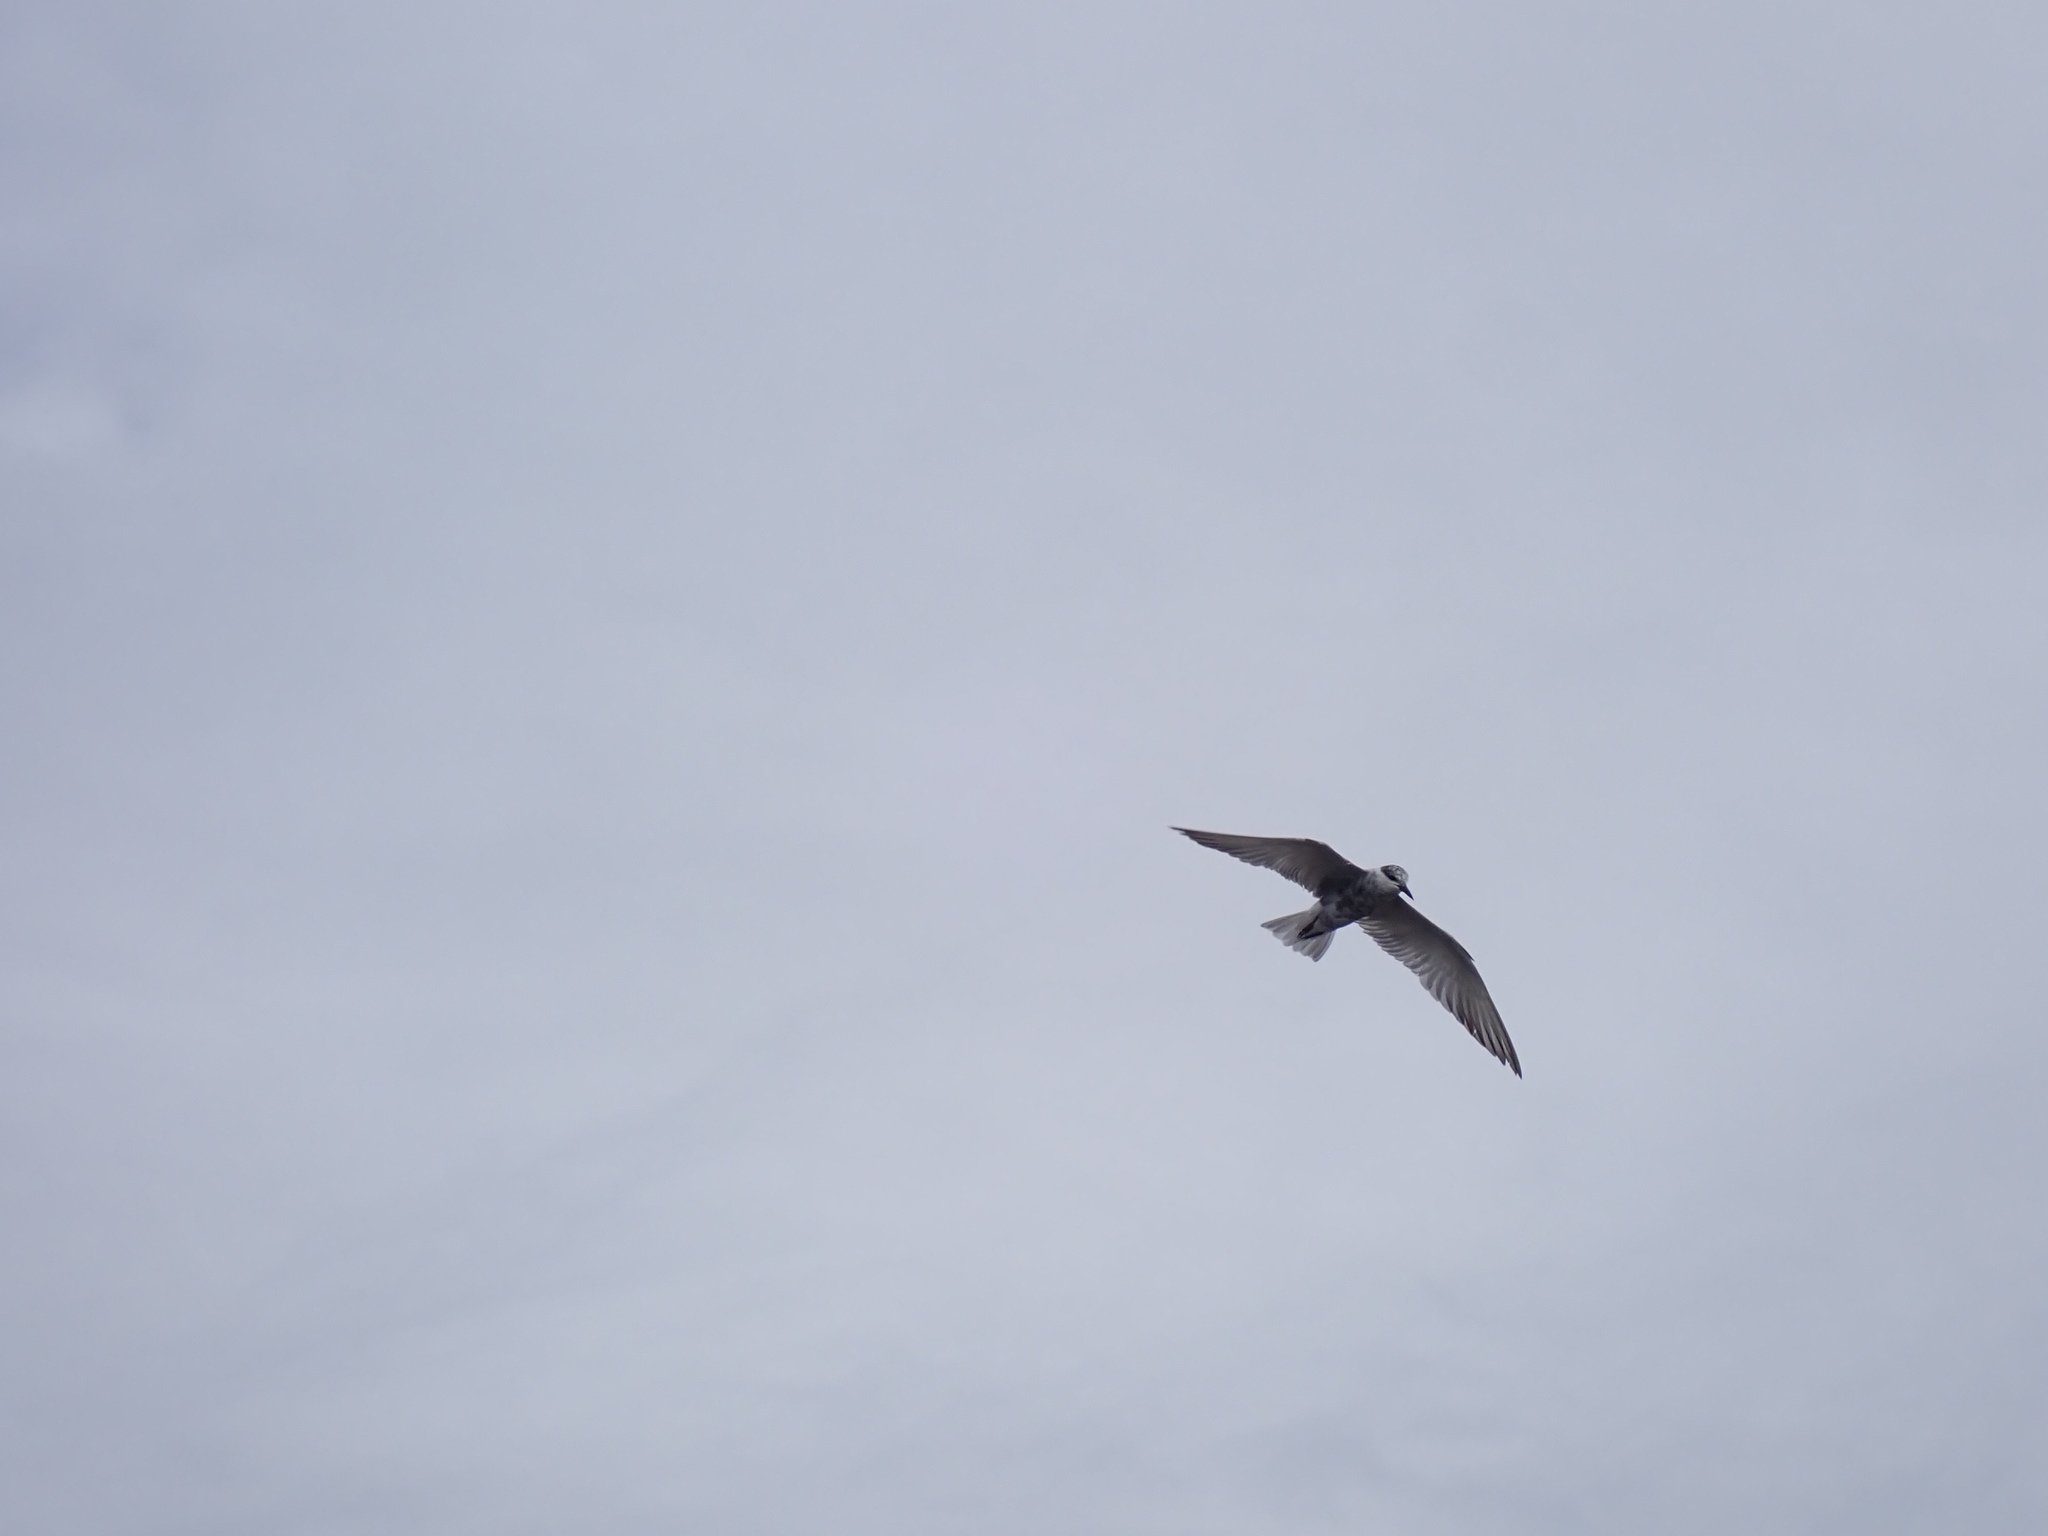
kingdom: Animalia
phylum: Chordata
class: Aves
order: Charadriiformes
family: Laridae
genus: Chlidonias
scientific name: Chlidonias hybrida
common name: Whiskered tern
